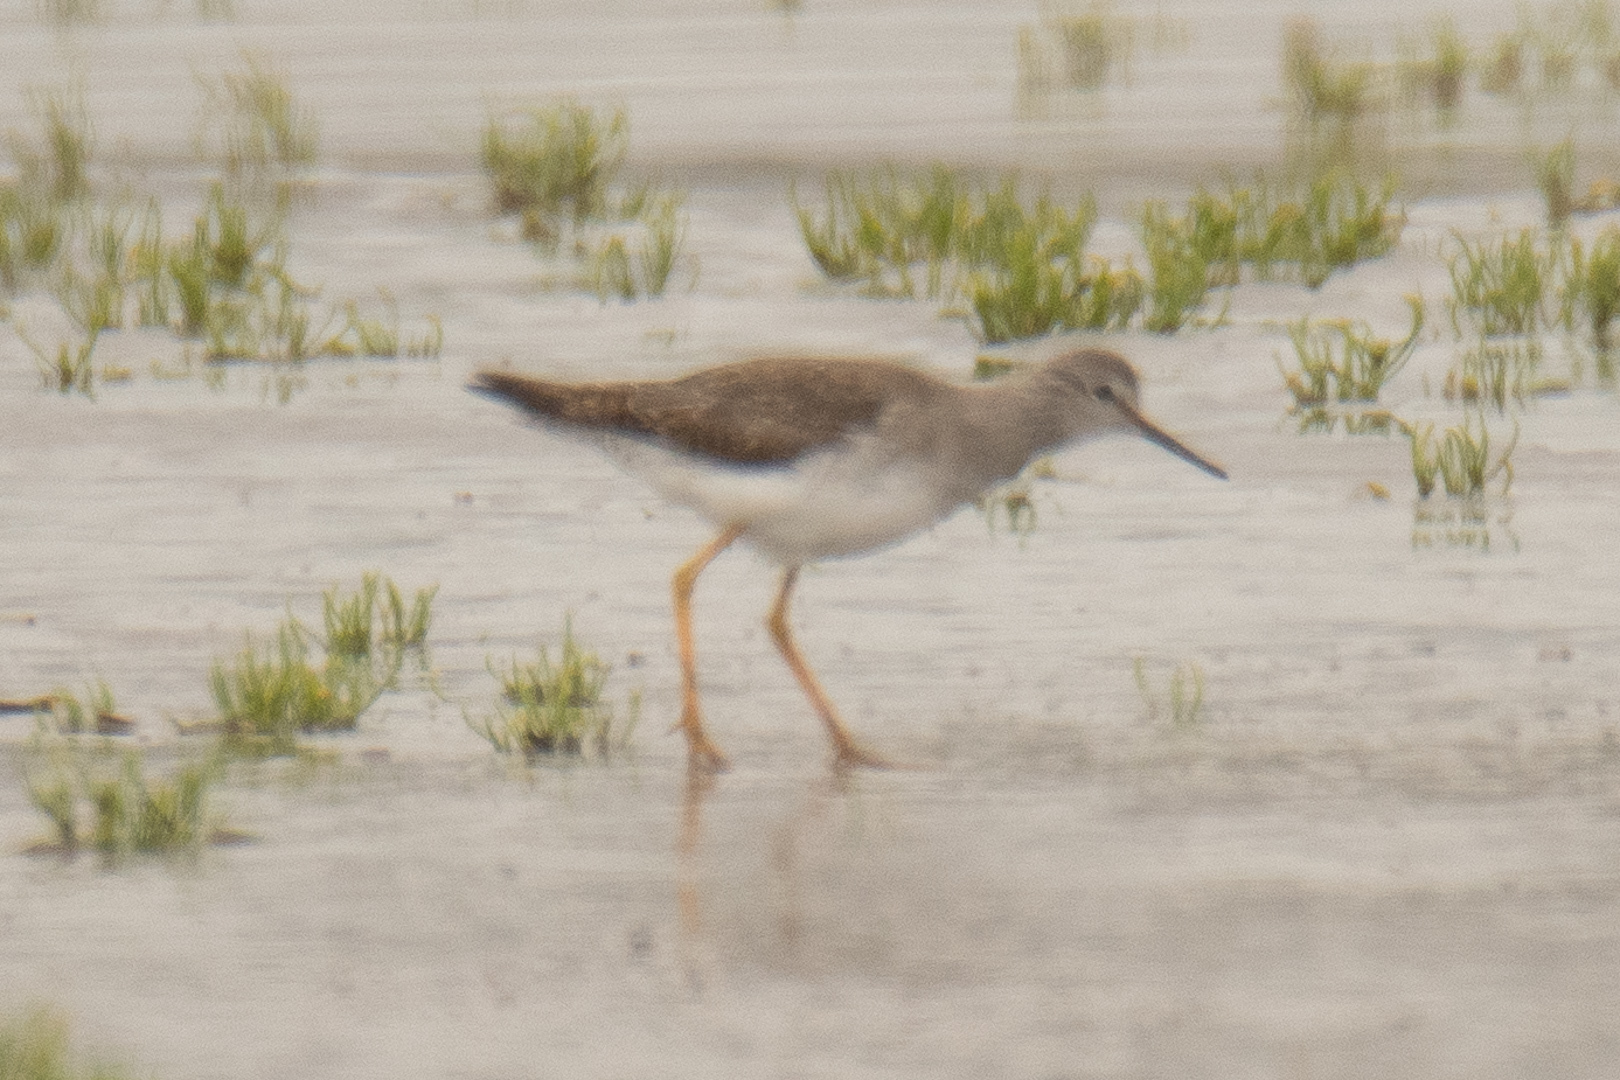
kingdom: Animalia
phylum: Chordata
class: Aves
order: Charadriiformes
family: Scolopacidae
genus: Tringa
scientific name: Tringa flavipes
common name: Lesser yellowlegs
